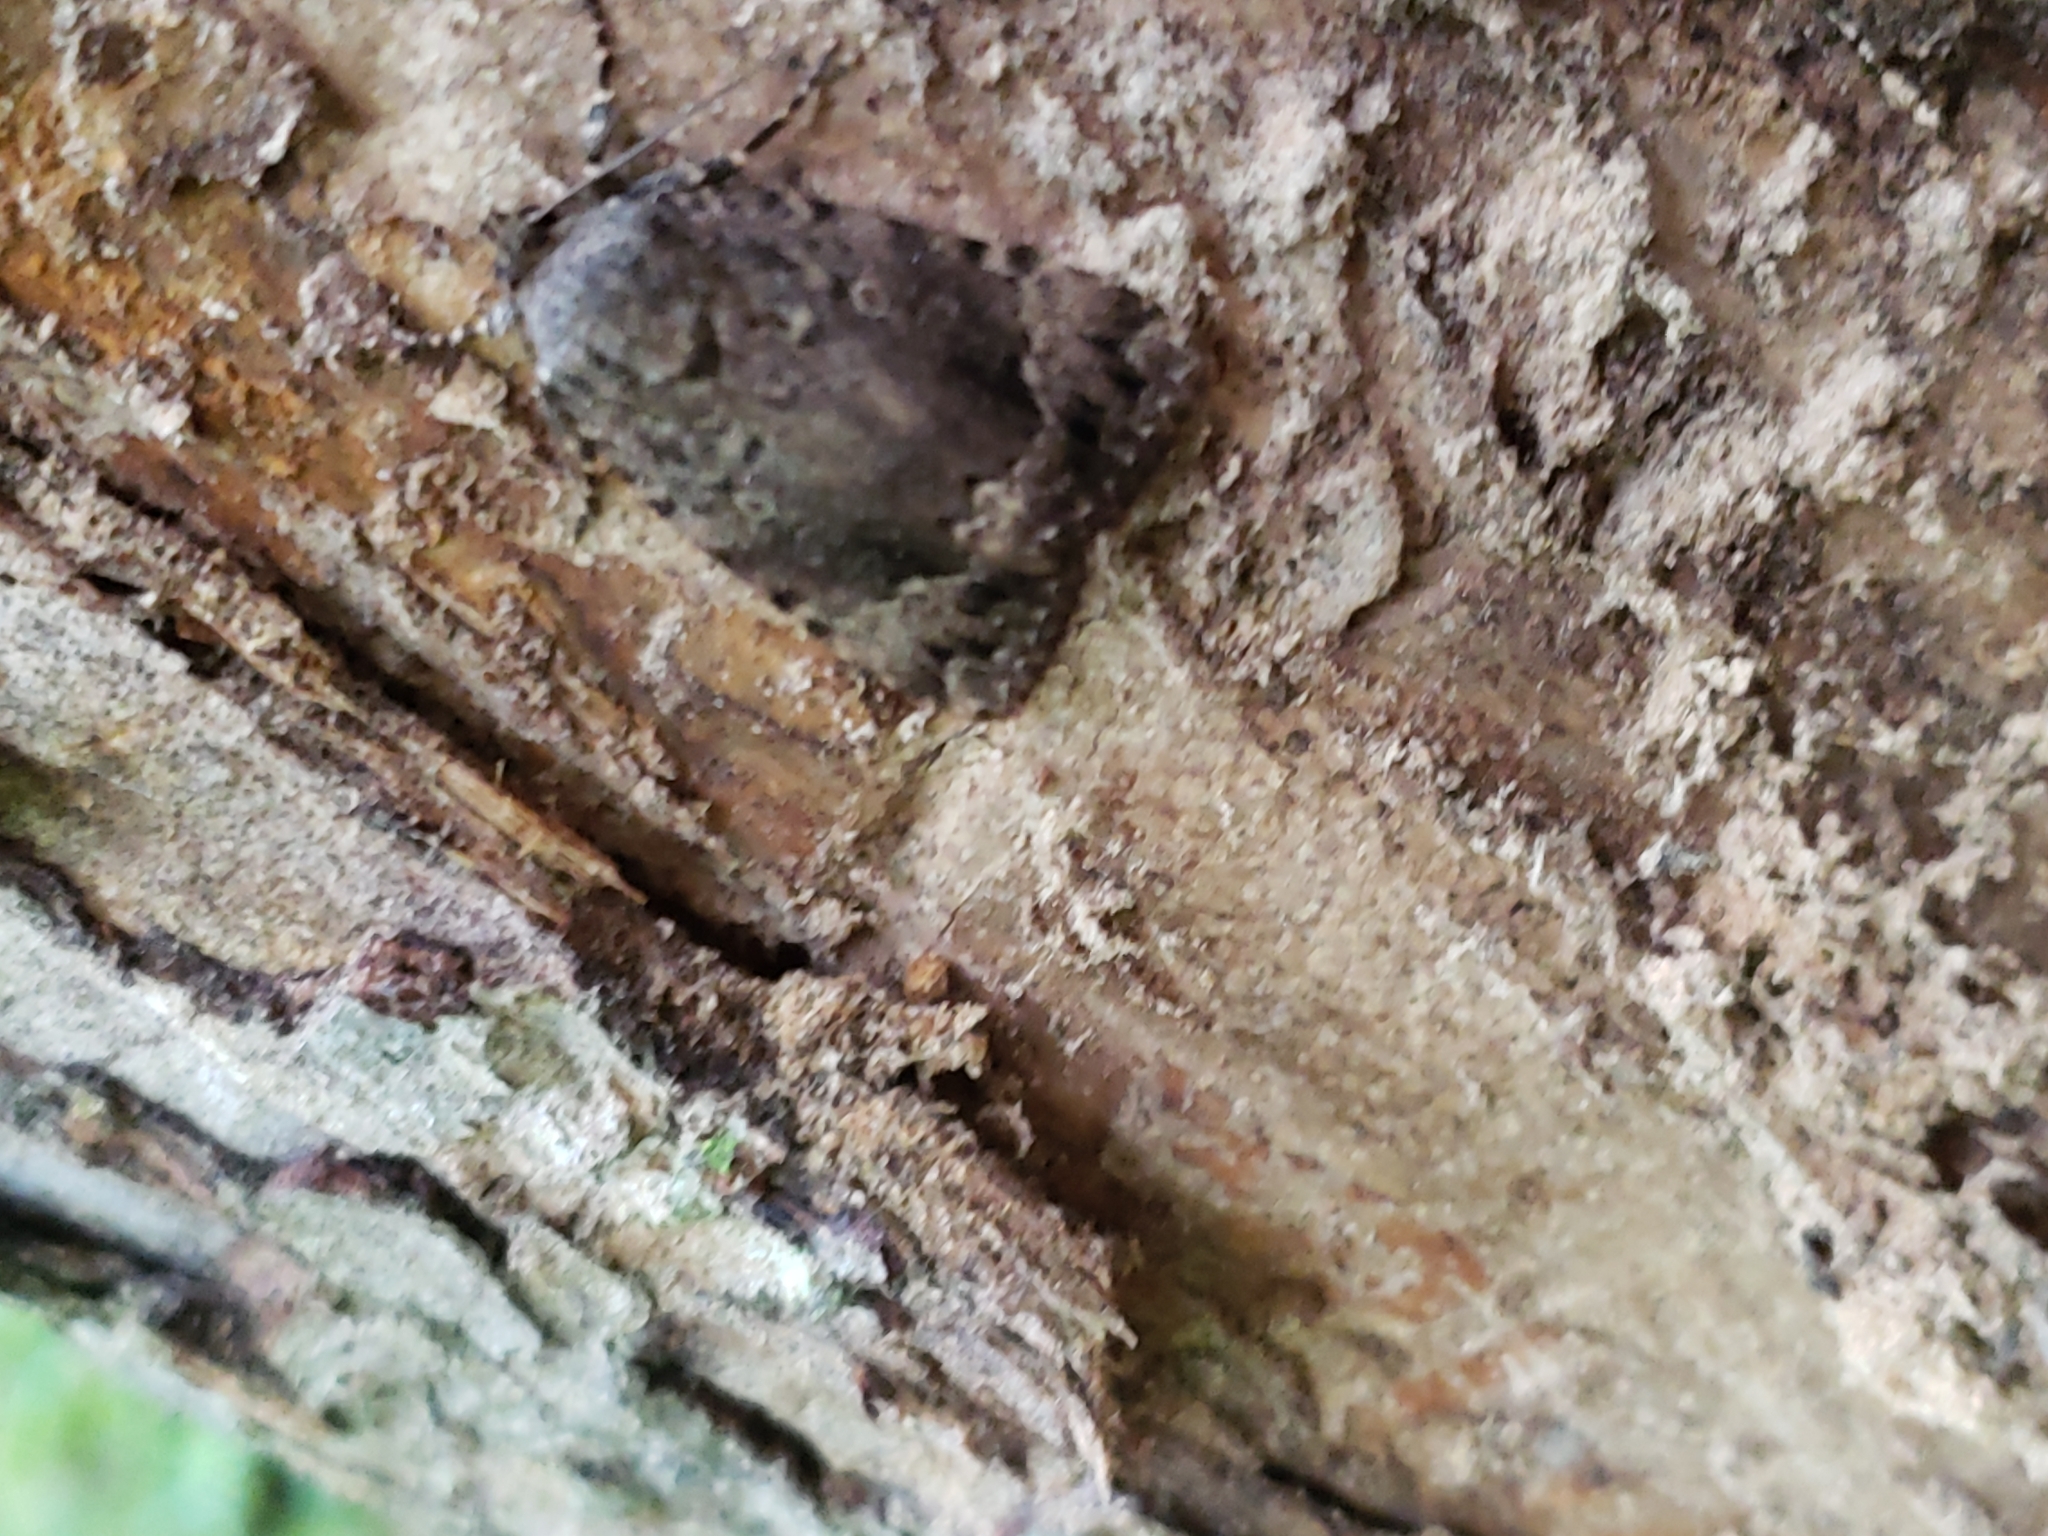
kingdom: Animalia
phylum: Arthropoda
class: Insecta
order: Lepidoptera
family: Noctuidae
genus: Amphipyra
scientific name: Amphipyra pyramidoides
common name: American copper underwing
